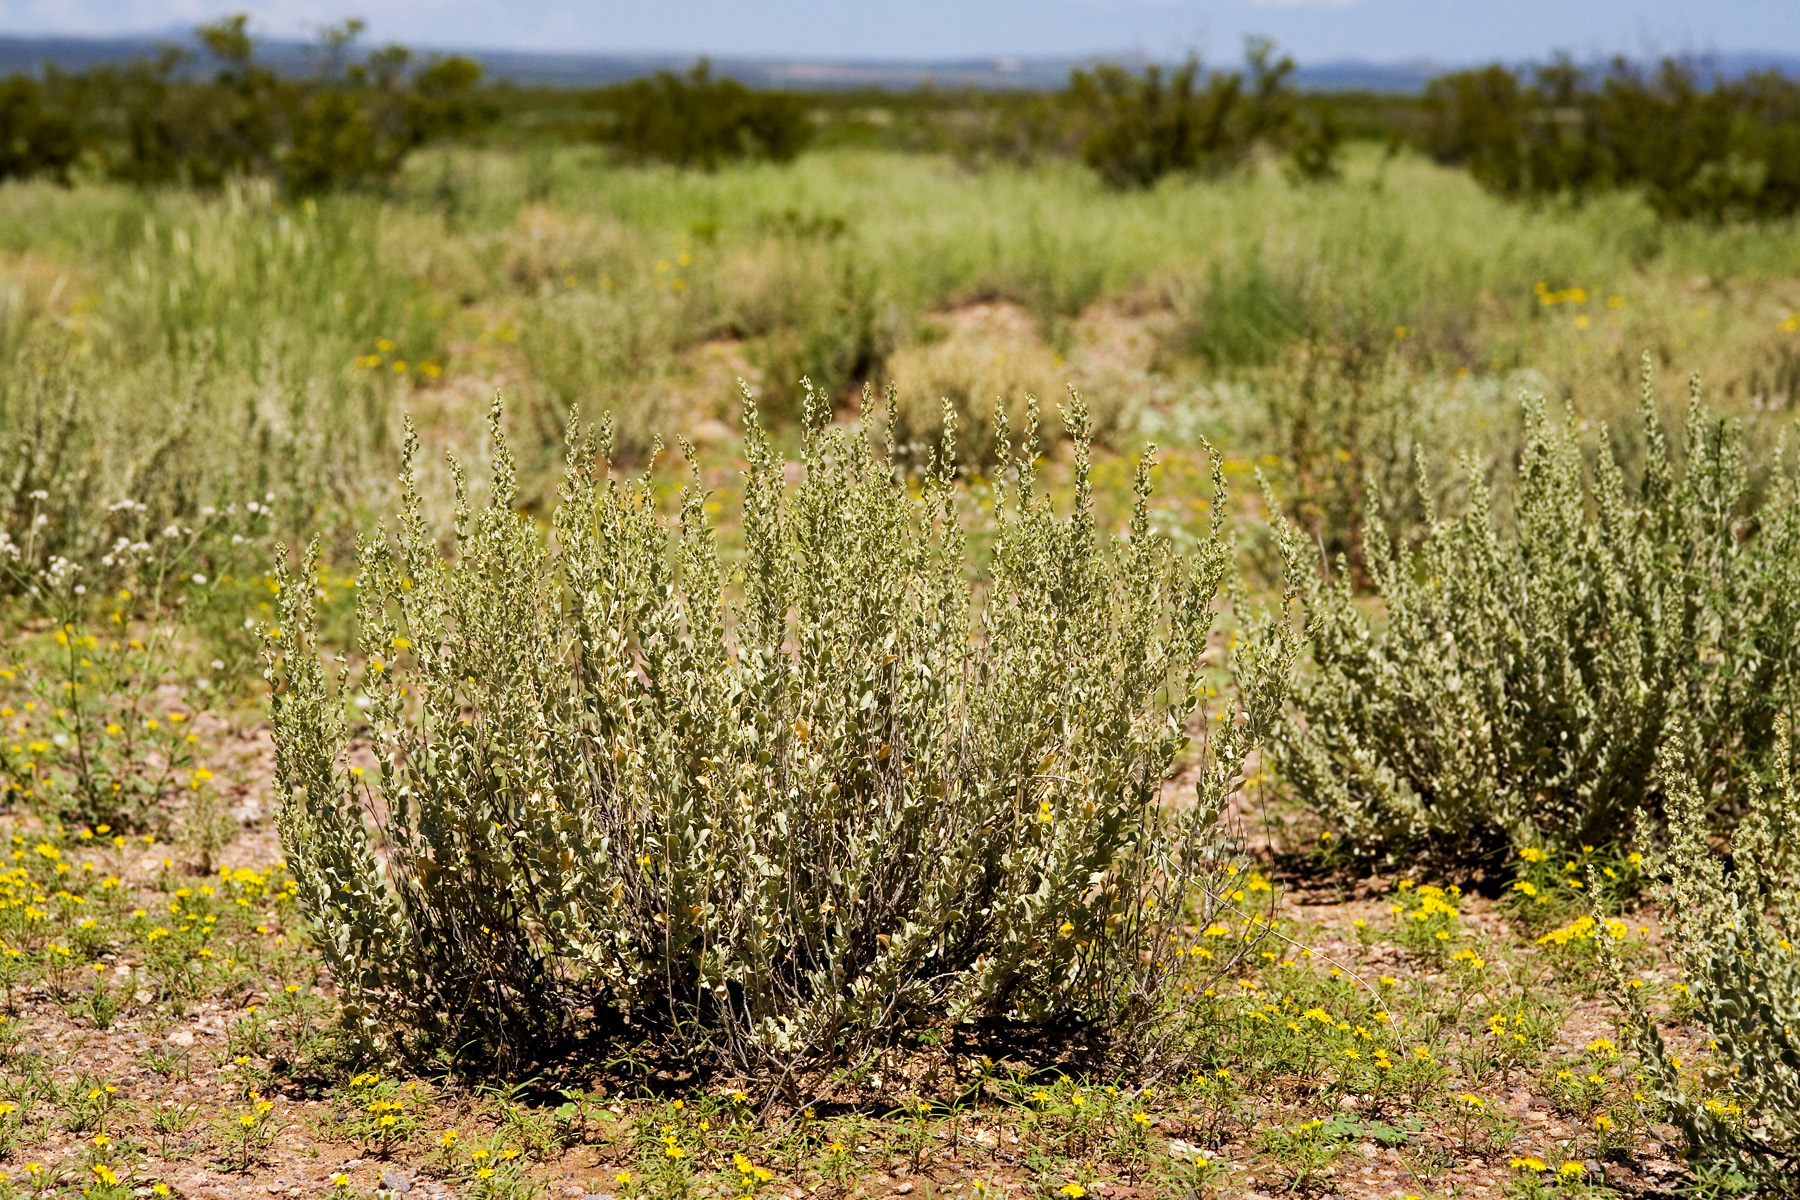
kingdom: Plantae
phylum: Tracheophyta
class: Magnoliopsida
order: Caryophyllales
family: Amaranthaceae
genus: Atriplex
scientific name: Atriplex obovata
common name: New mexico saltbush
